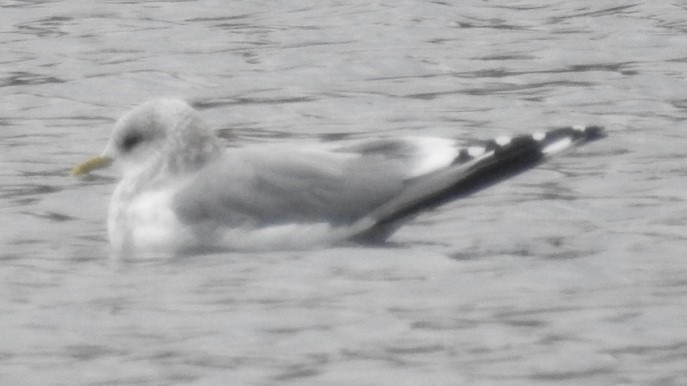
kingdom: Animalia
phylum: Chordata
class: Aves
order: Charadriiformes
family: Laridae
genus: Larus
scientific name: Larus brachyrhynchus
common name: Short-billed gull
